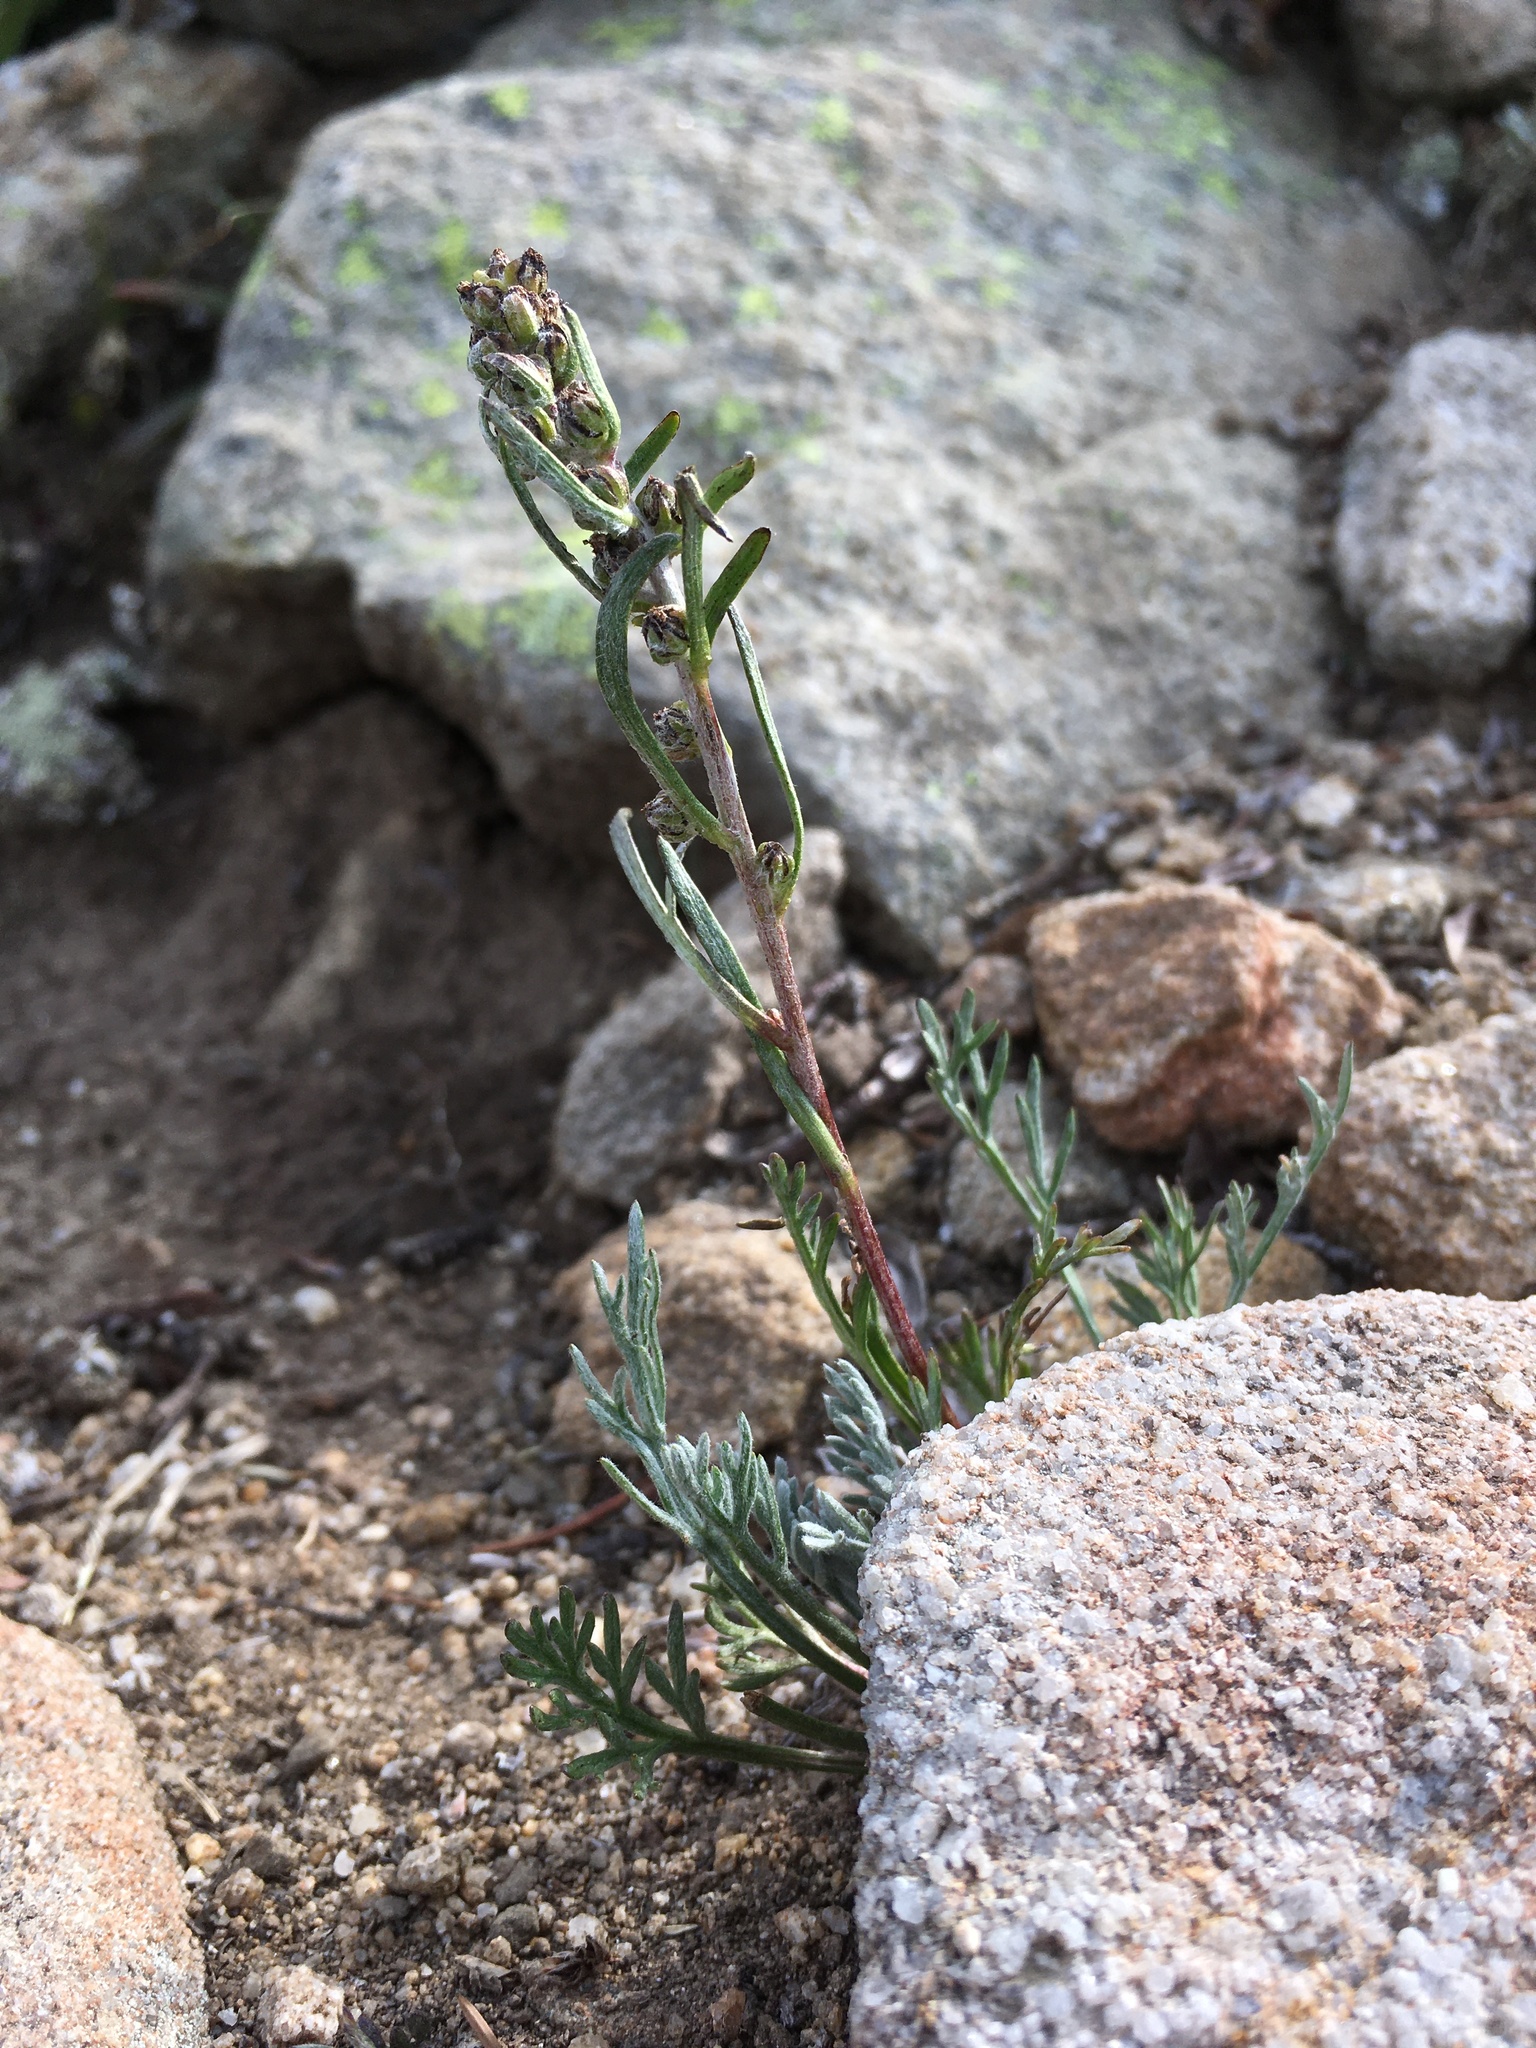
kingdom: Plantae
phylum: Tracheophyta
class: Magnoliopsida
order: Asterales
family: Asteraceae
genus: Artemisia
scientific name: Artemisia scopulorum
